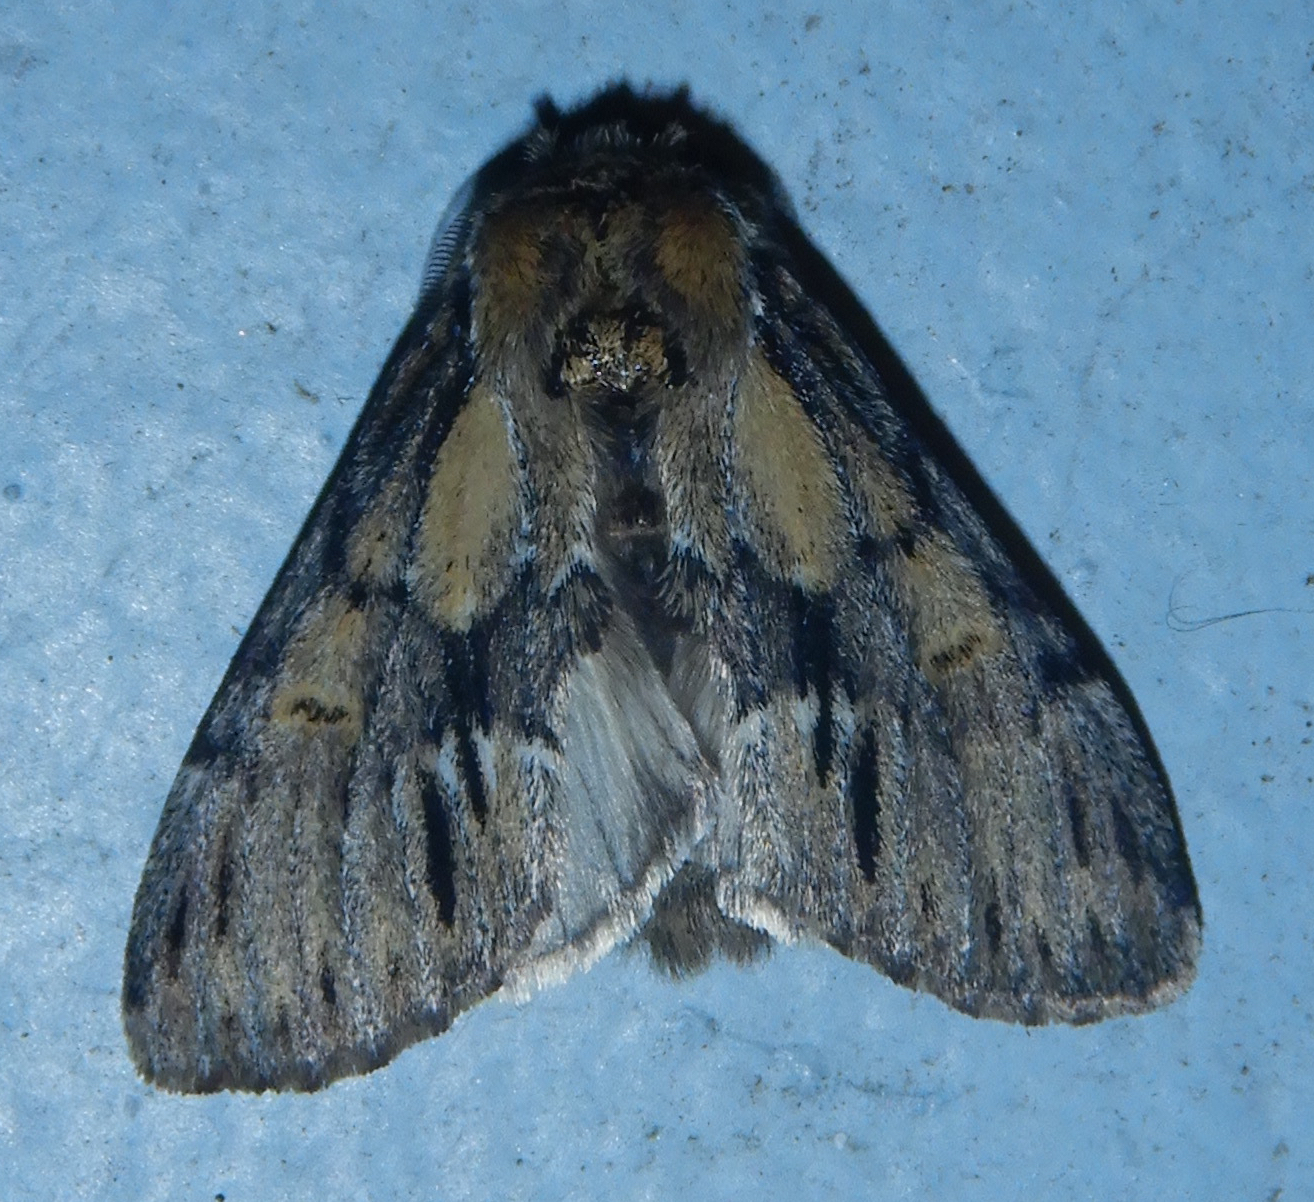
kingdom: Animalia
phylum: Arthropoda
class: Insecta
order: Lepidoptera
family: Notodontidae
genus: Paraeschra
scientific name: Paraeschra georgica
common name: Georgian prominent
